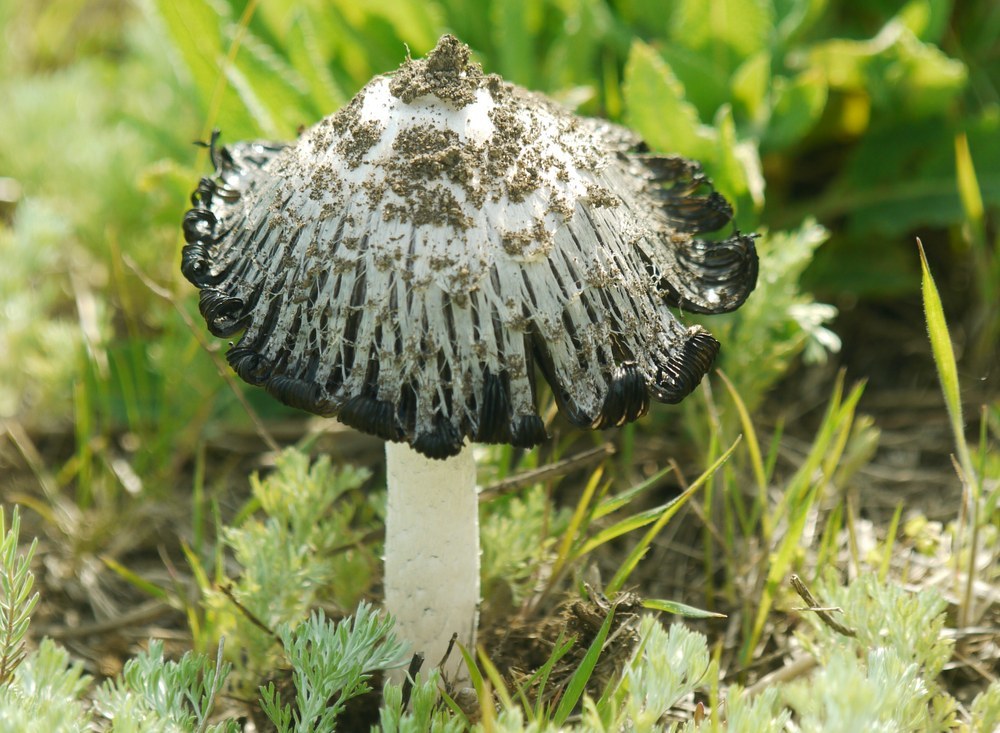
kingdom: Fungi
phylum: Basidiomycota
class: Agaricomycetes
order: Agaricales
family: Agaricaceae
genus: Coprinus
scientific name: Coprinus comatus
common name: Lawyer's wig
